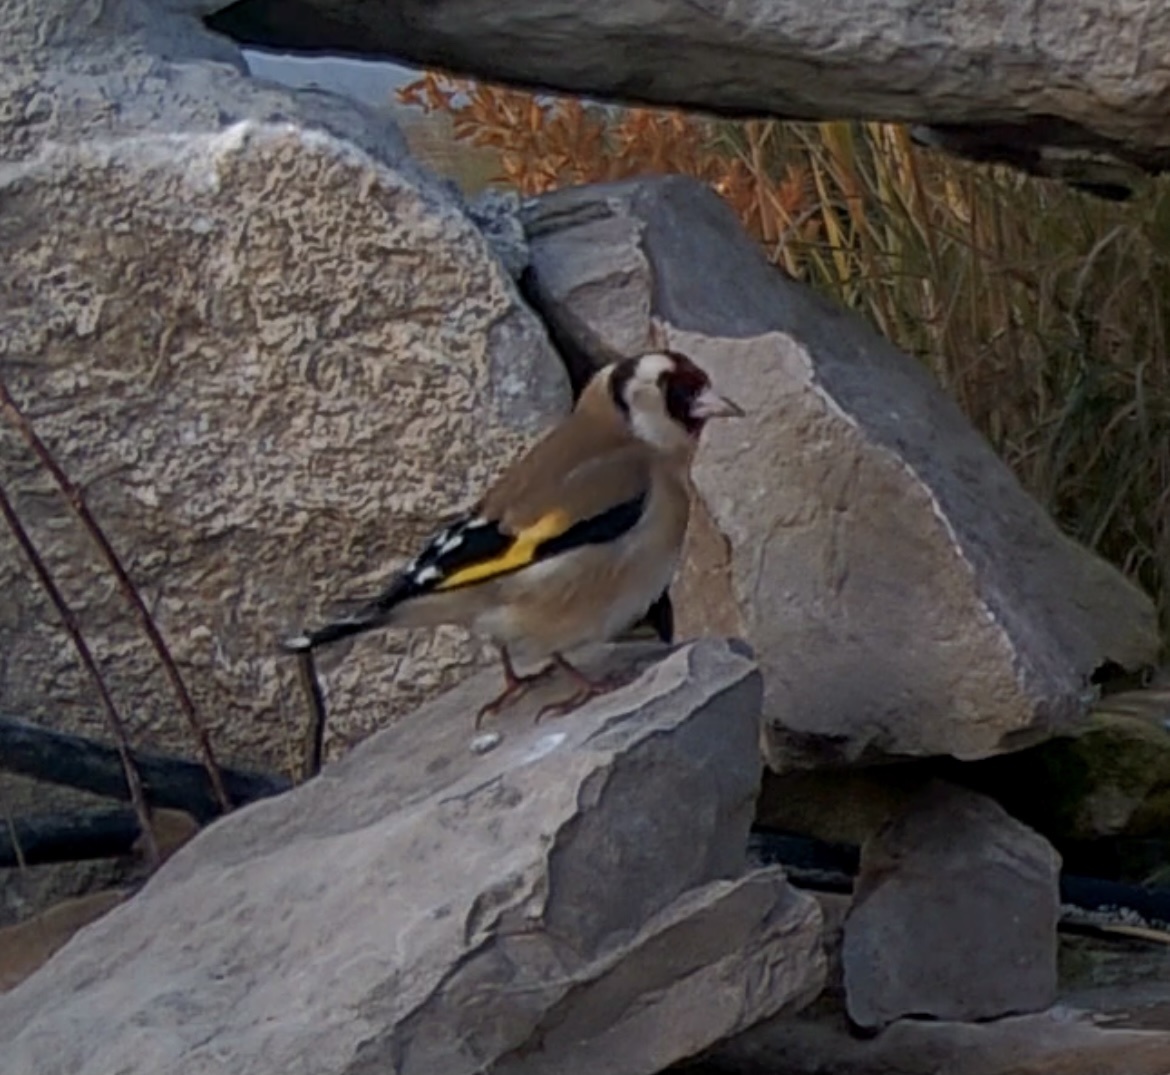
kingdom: Animalia
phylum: Chordata
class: Aves
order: Passeriformes
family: Fringillidae
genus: Carduelis
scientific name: Carduelis carduelis
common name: European goldfinch
